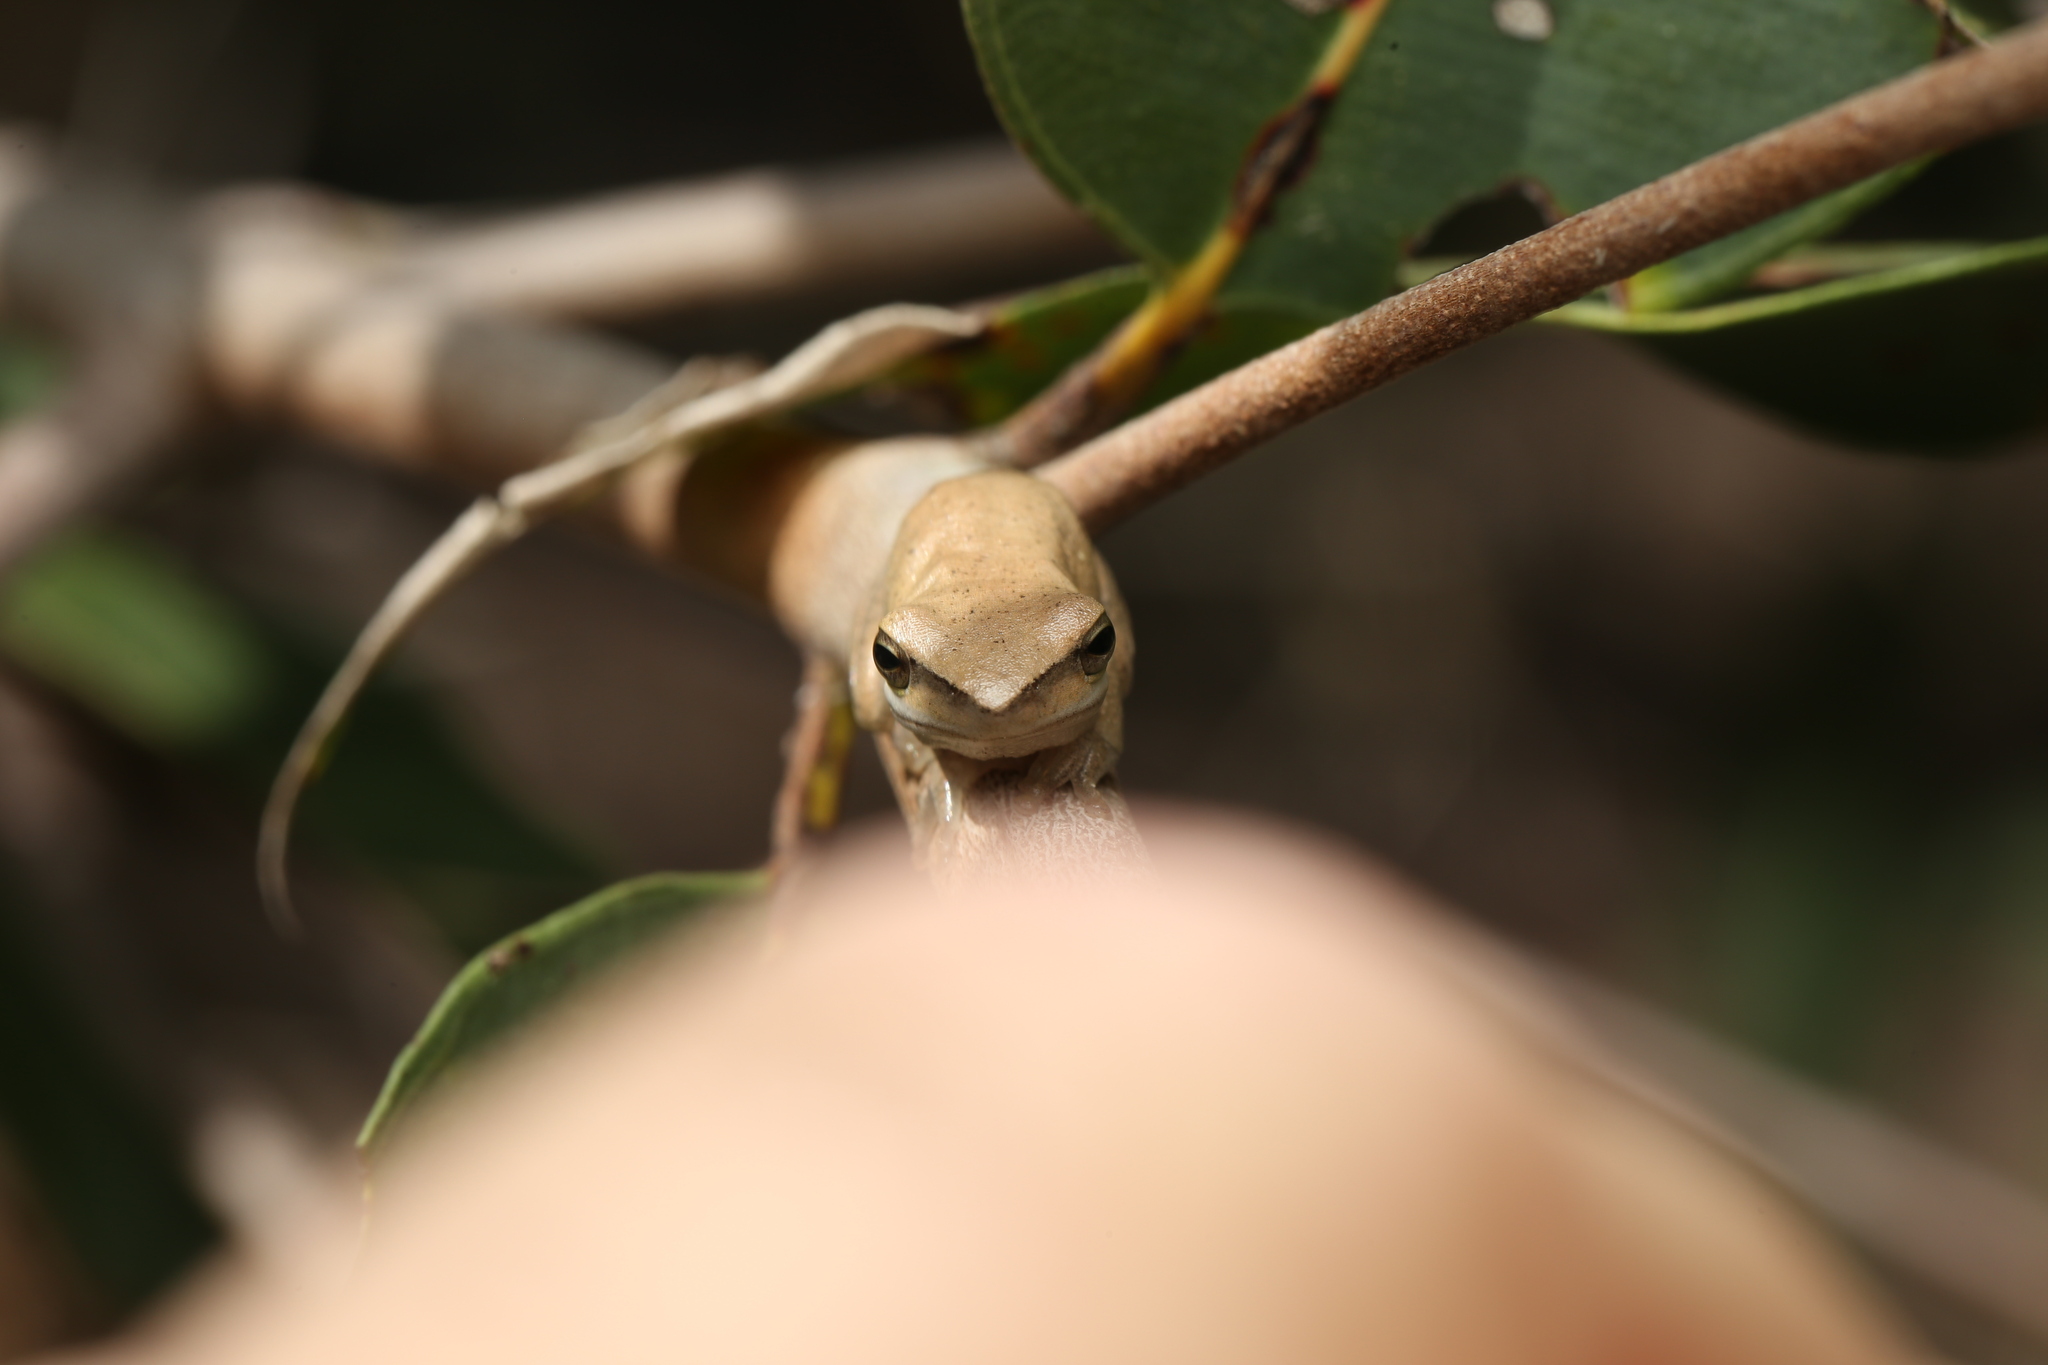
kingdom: Animalia
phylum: Chordata
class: Amphibia
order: Anura
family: Pelodryadidae
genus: Litoria
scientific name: Litoria fallax
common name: Eastern dwarf treefrog
